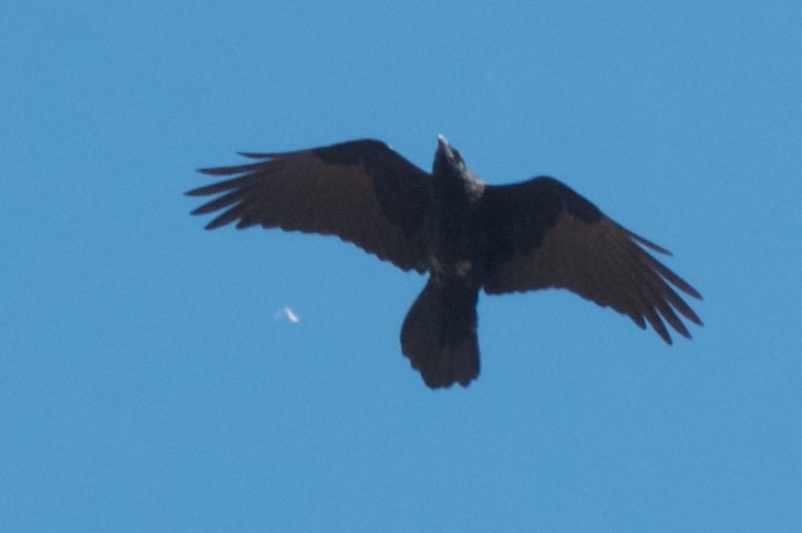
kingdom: Animalia
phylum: Chordata
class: Aves
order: Passeriformes
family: Corvidae
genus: Corvus
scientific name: Corvus corax
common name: Common raven
